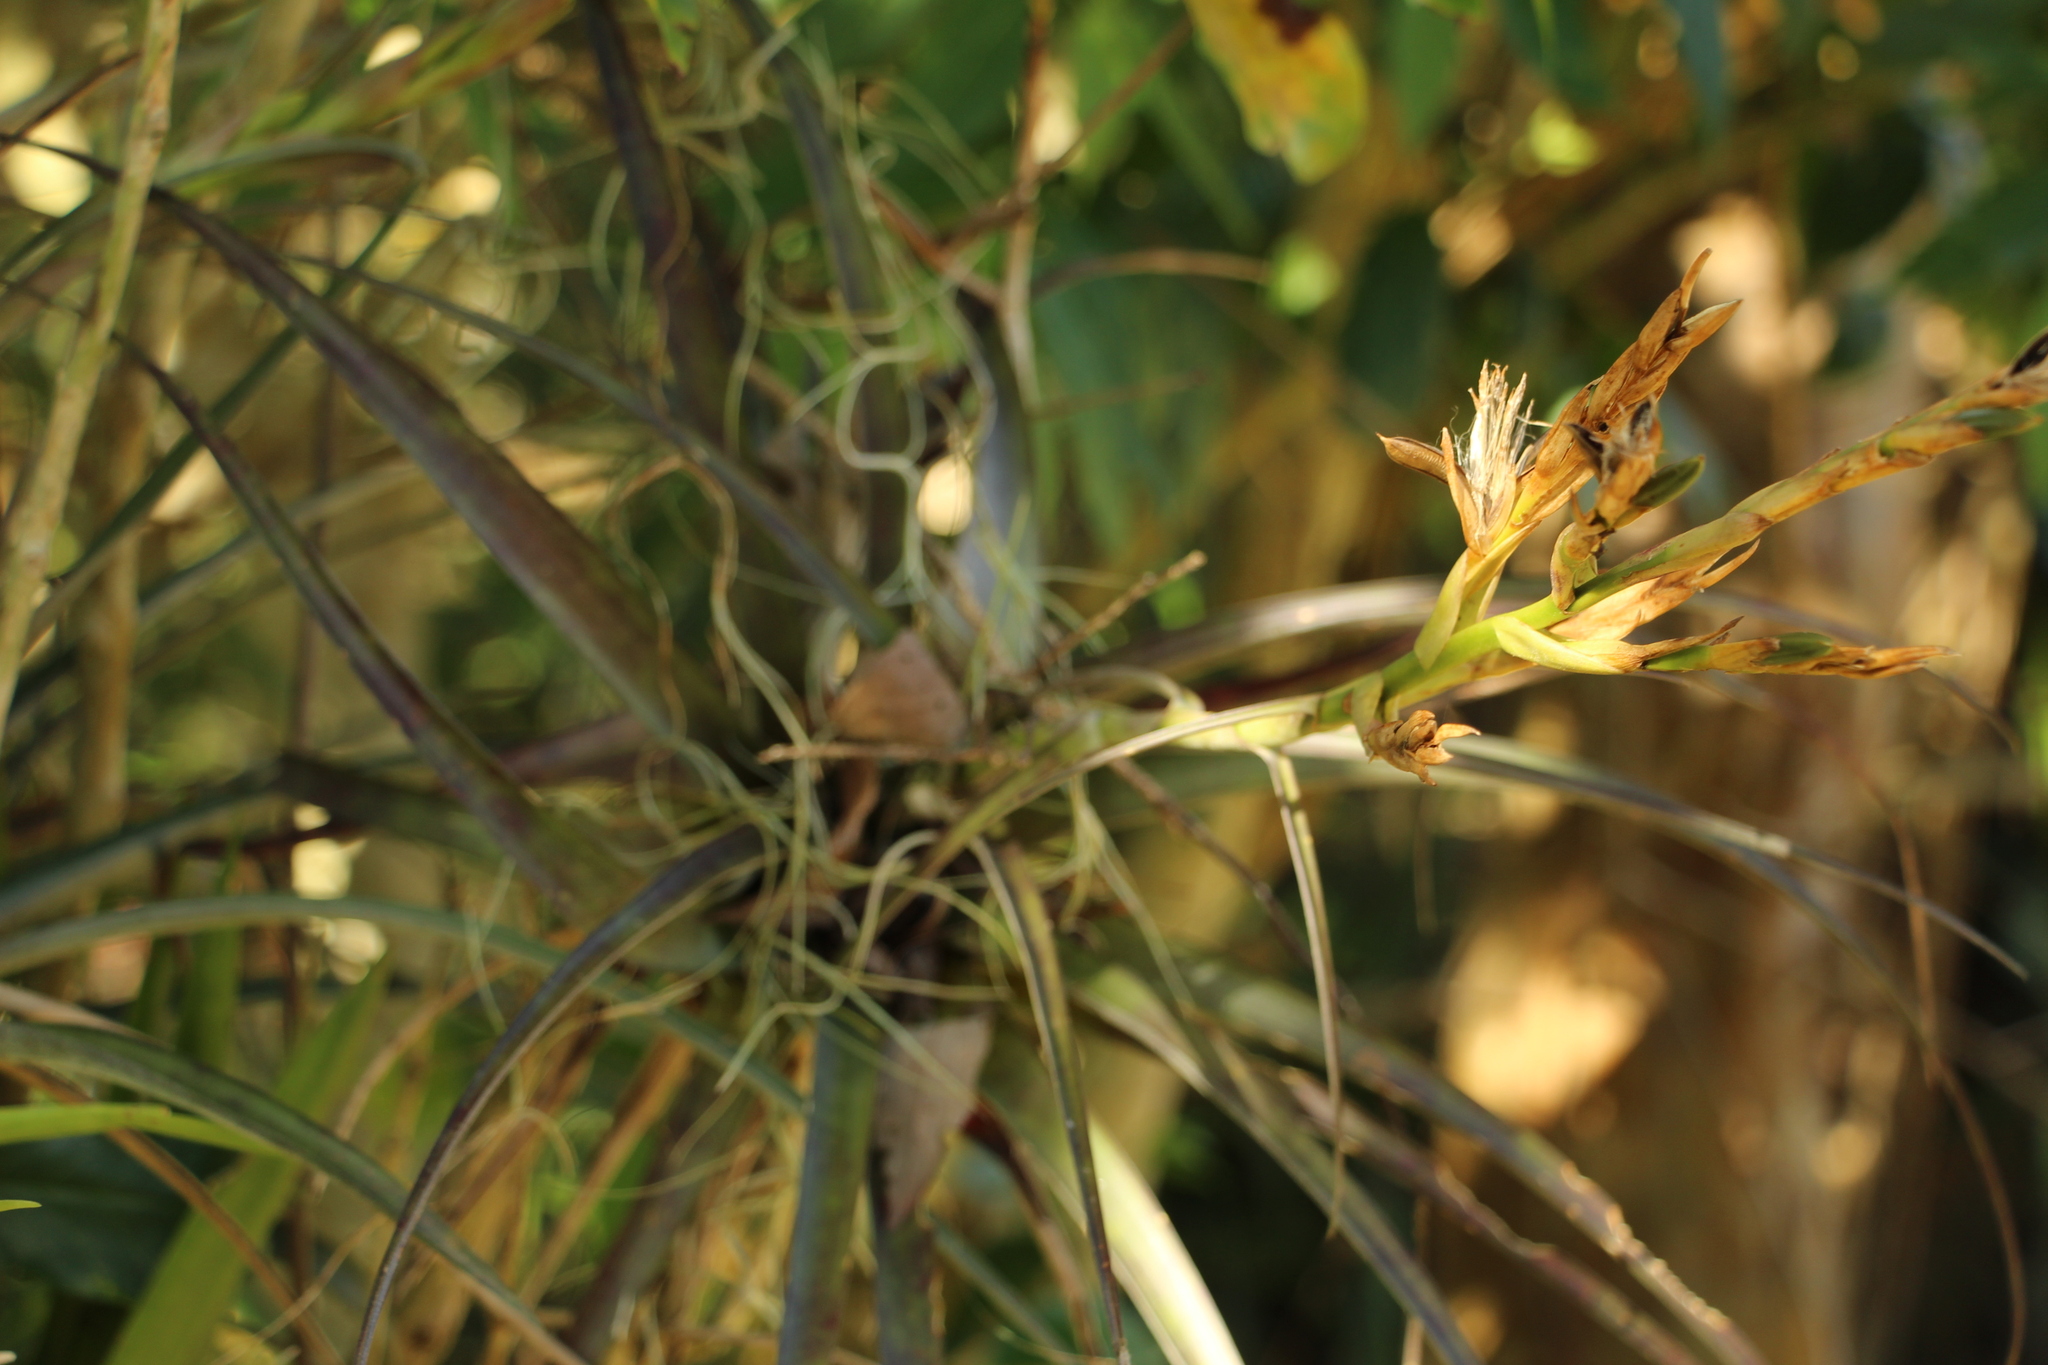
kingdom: Plantae
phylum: Tracheophyta
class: Liliopsida
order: Poales
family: Bromeliaceae
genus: Tillandsia
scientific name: Tillandsia variabilis
